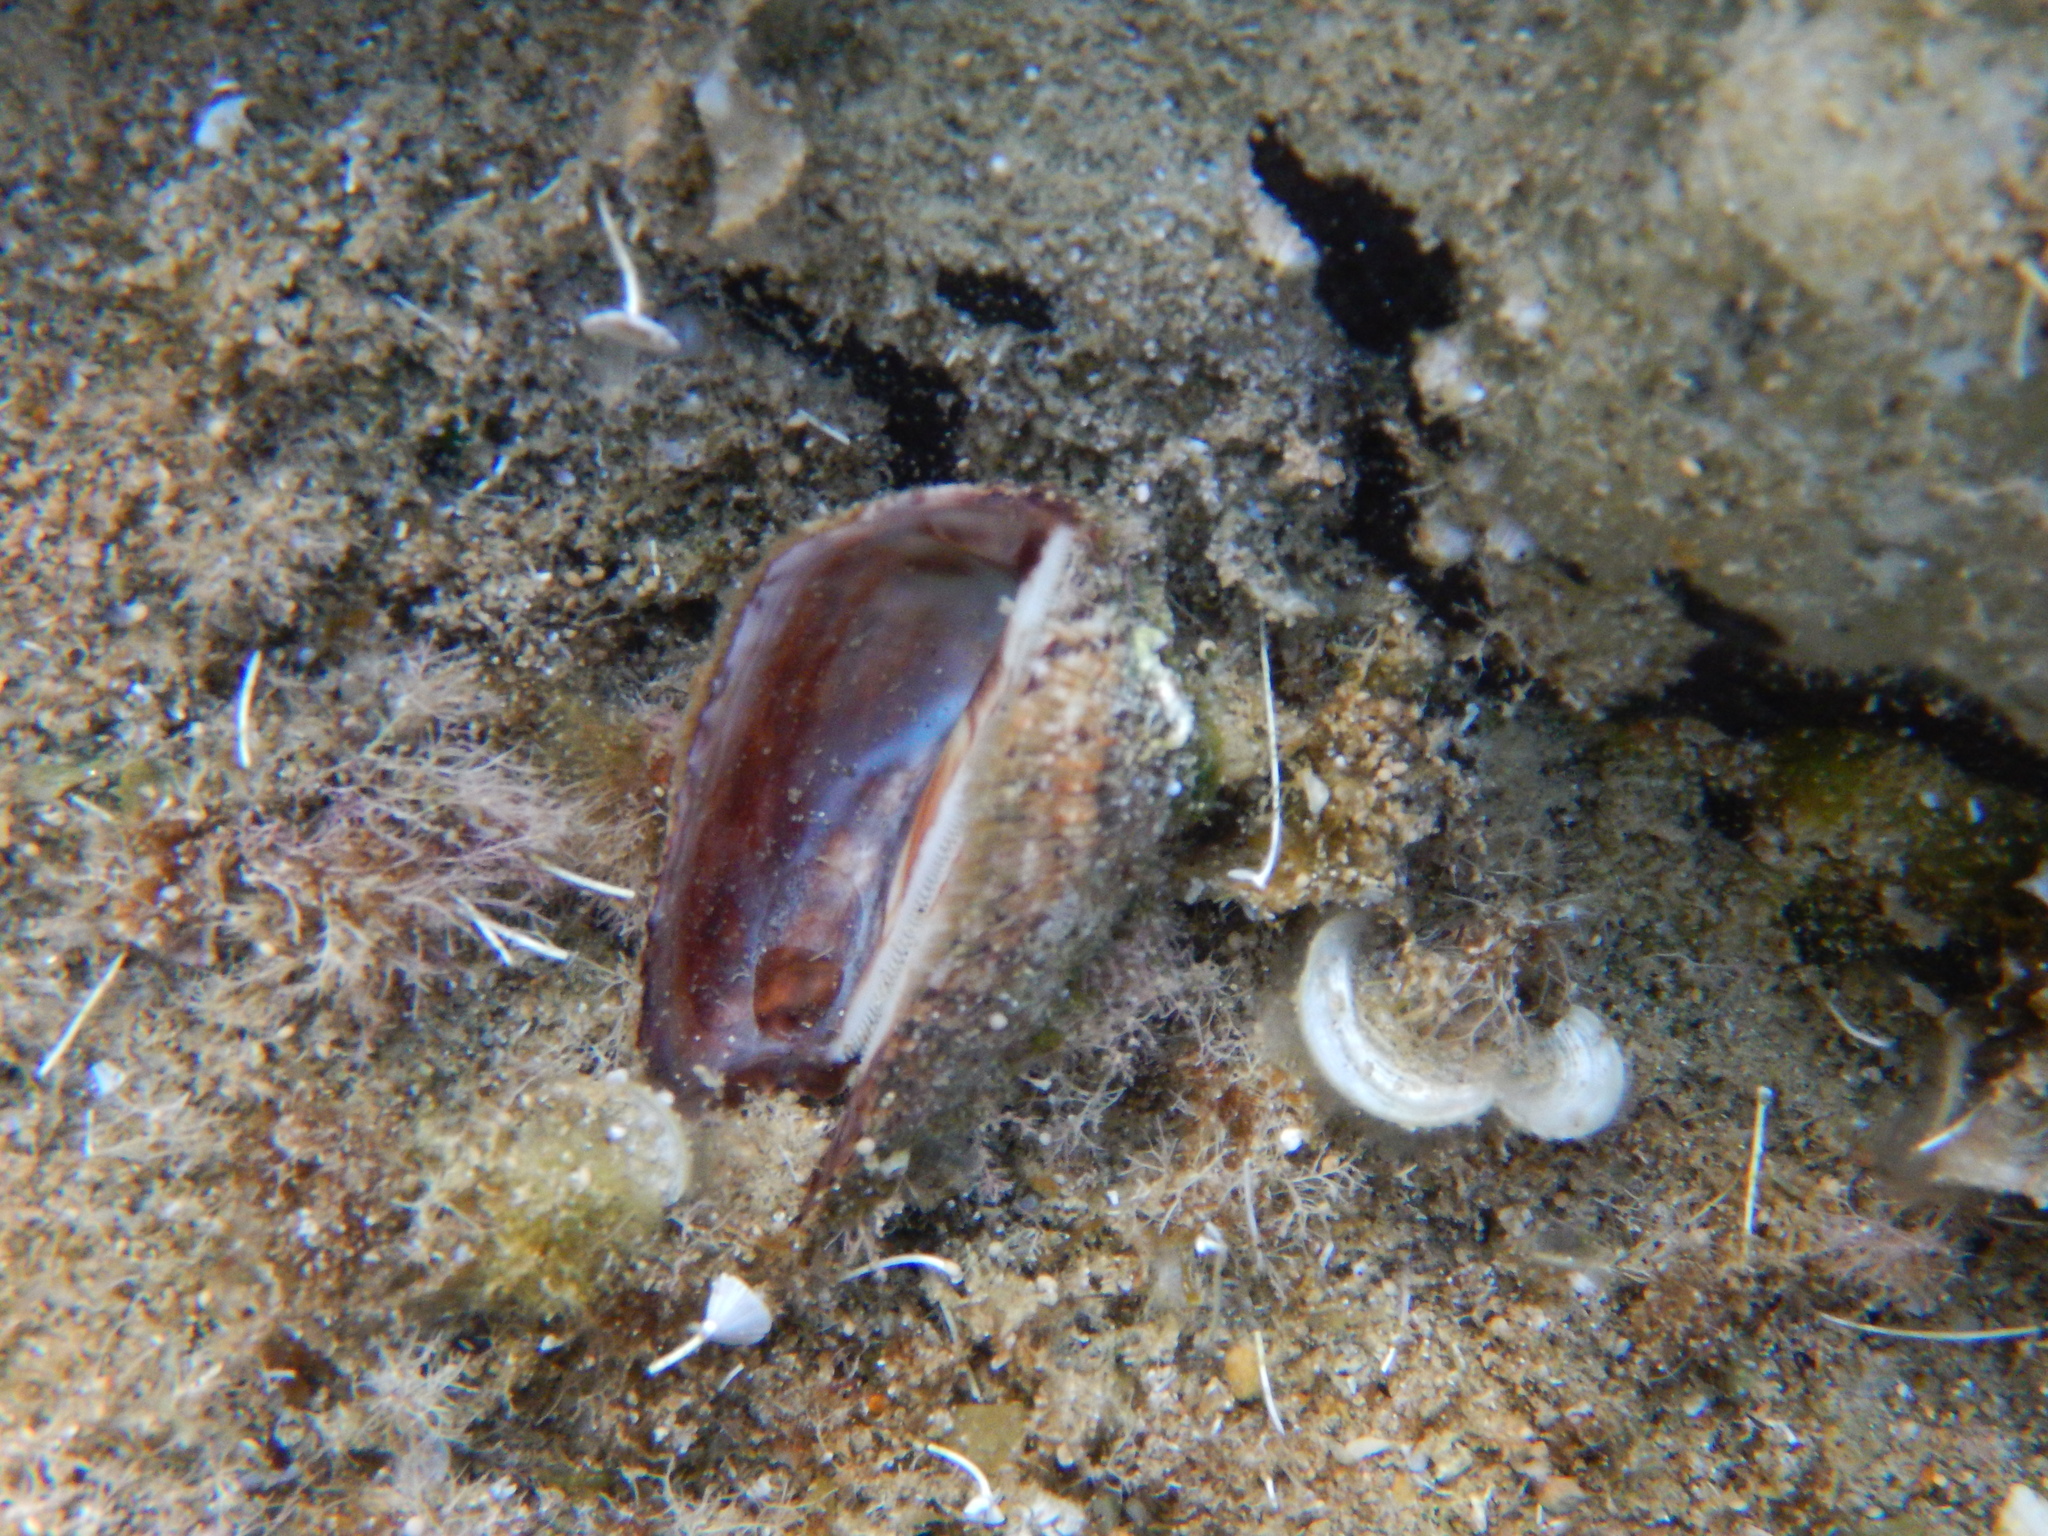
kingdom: Animalia
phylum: Mollusca
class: Bivalvia
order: Arcida
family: Arcidae
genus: Arca
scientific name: Arca noae
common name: Noah's arch
